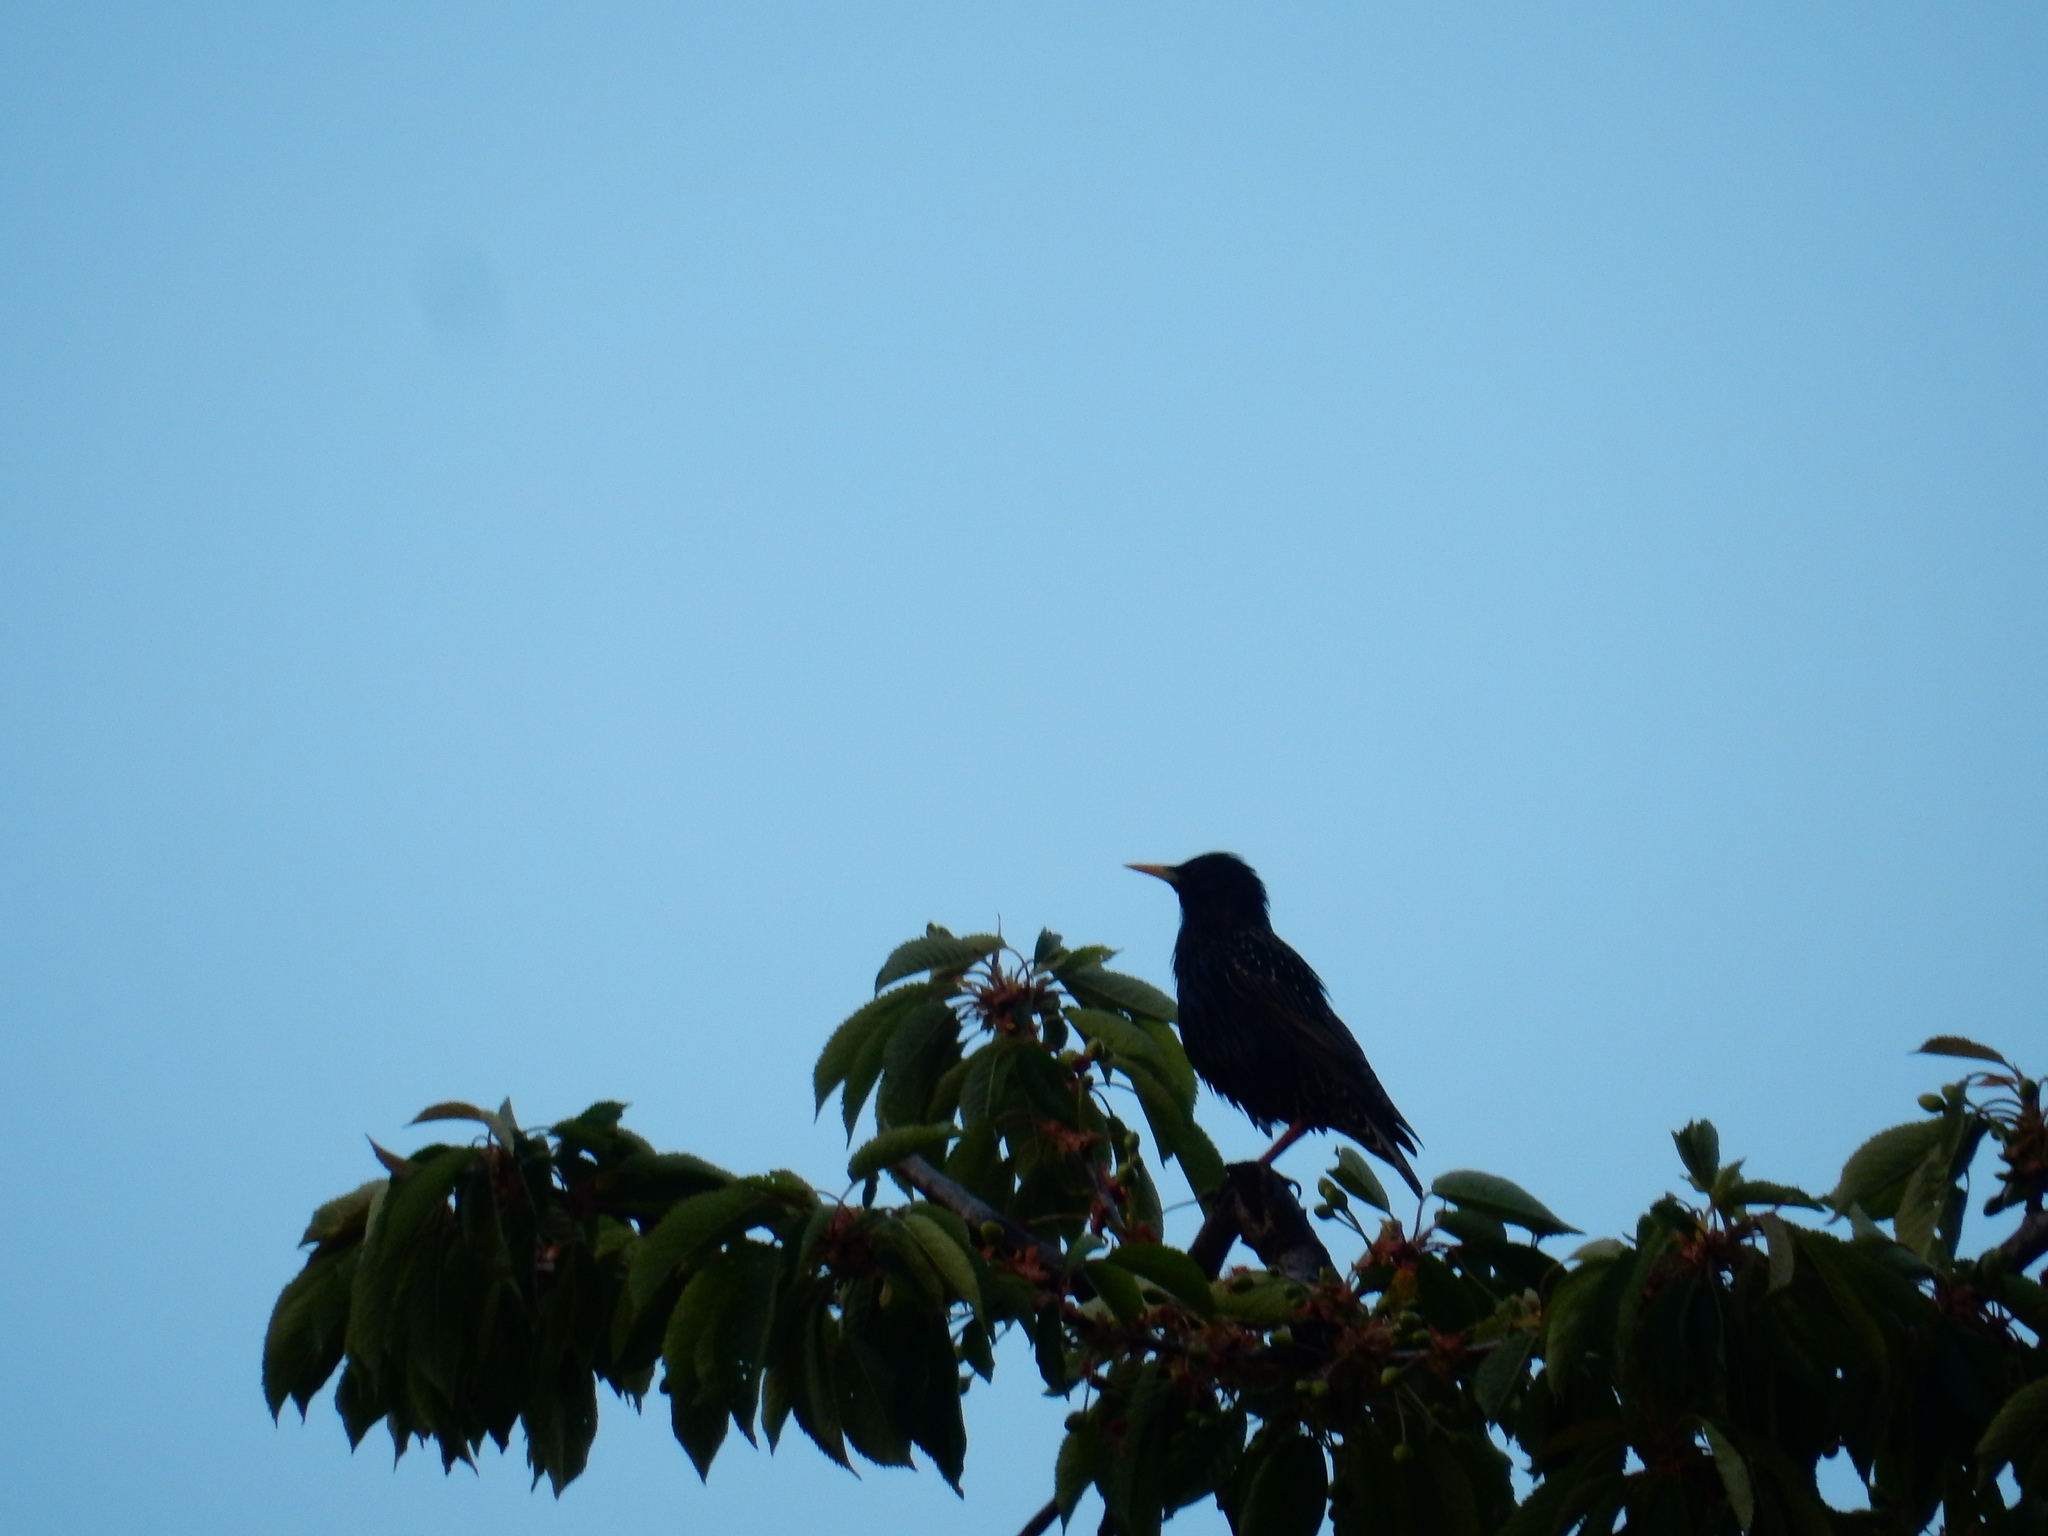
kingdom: Animalia
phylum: Chordata
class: Aves
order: Passeriformes
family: Sturnidae
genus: Sturnus
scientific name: Sturnus vulgaris
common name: Common starling
